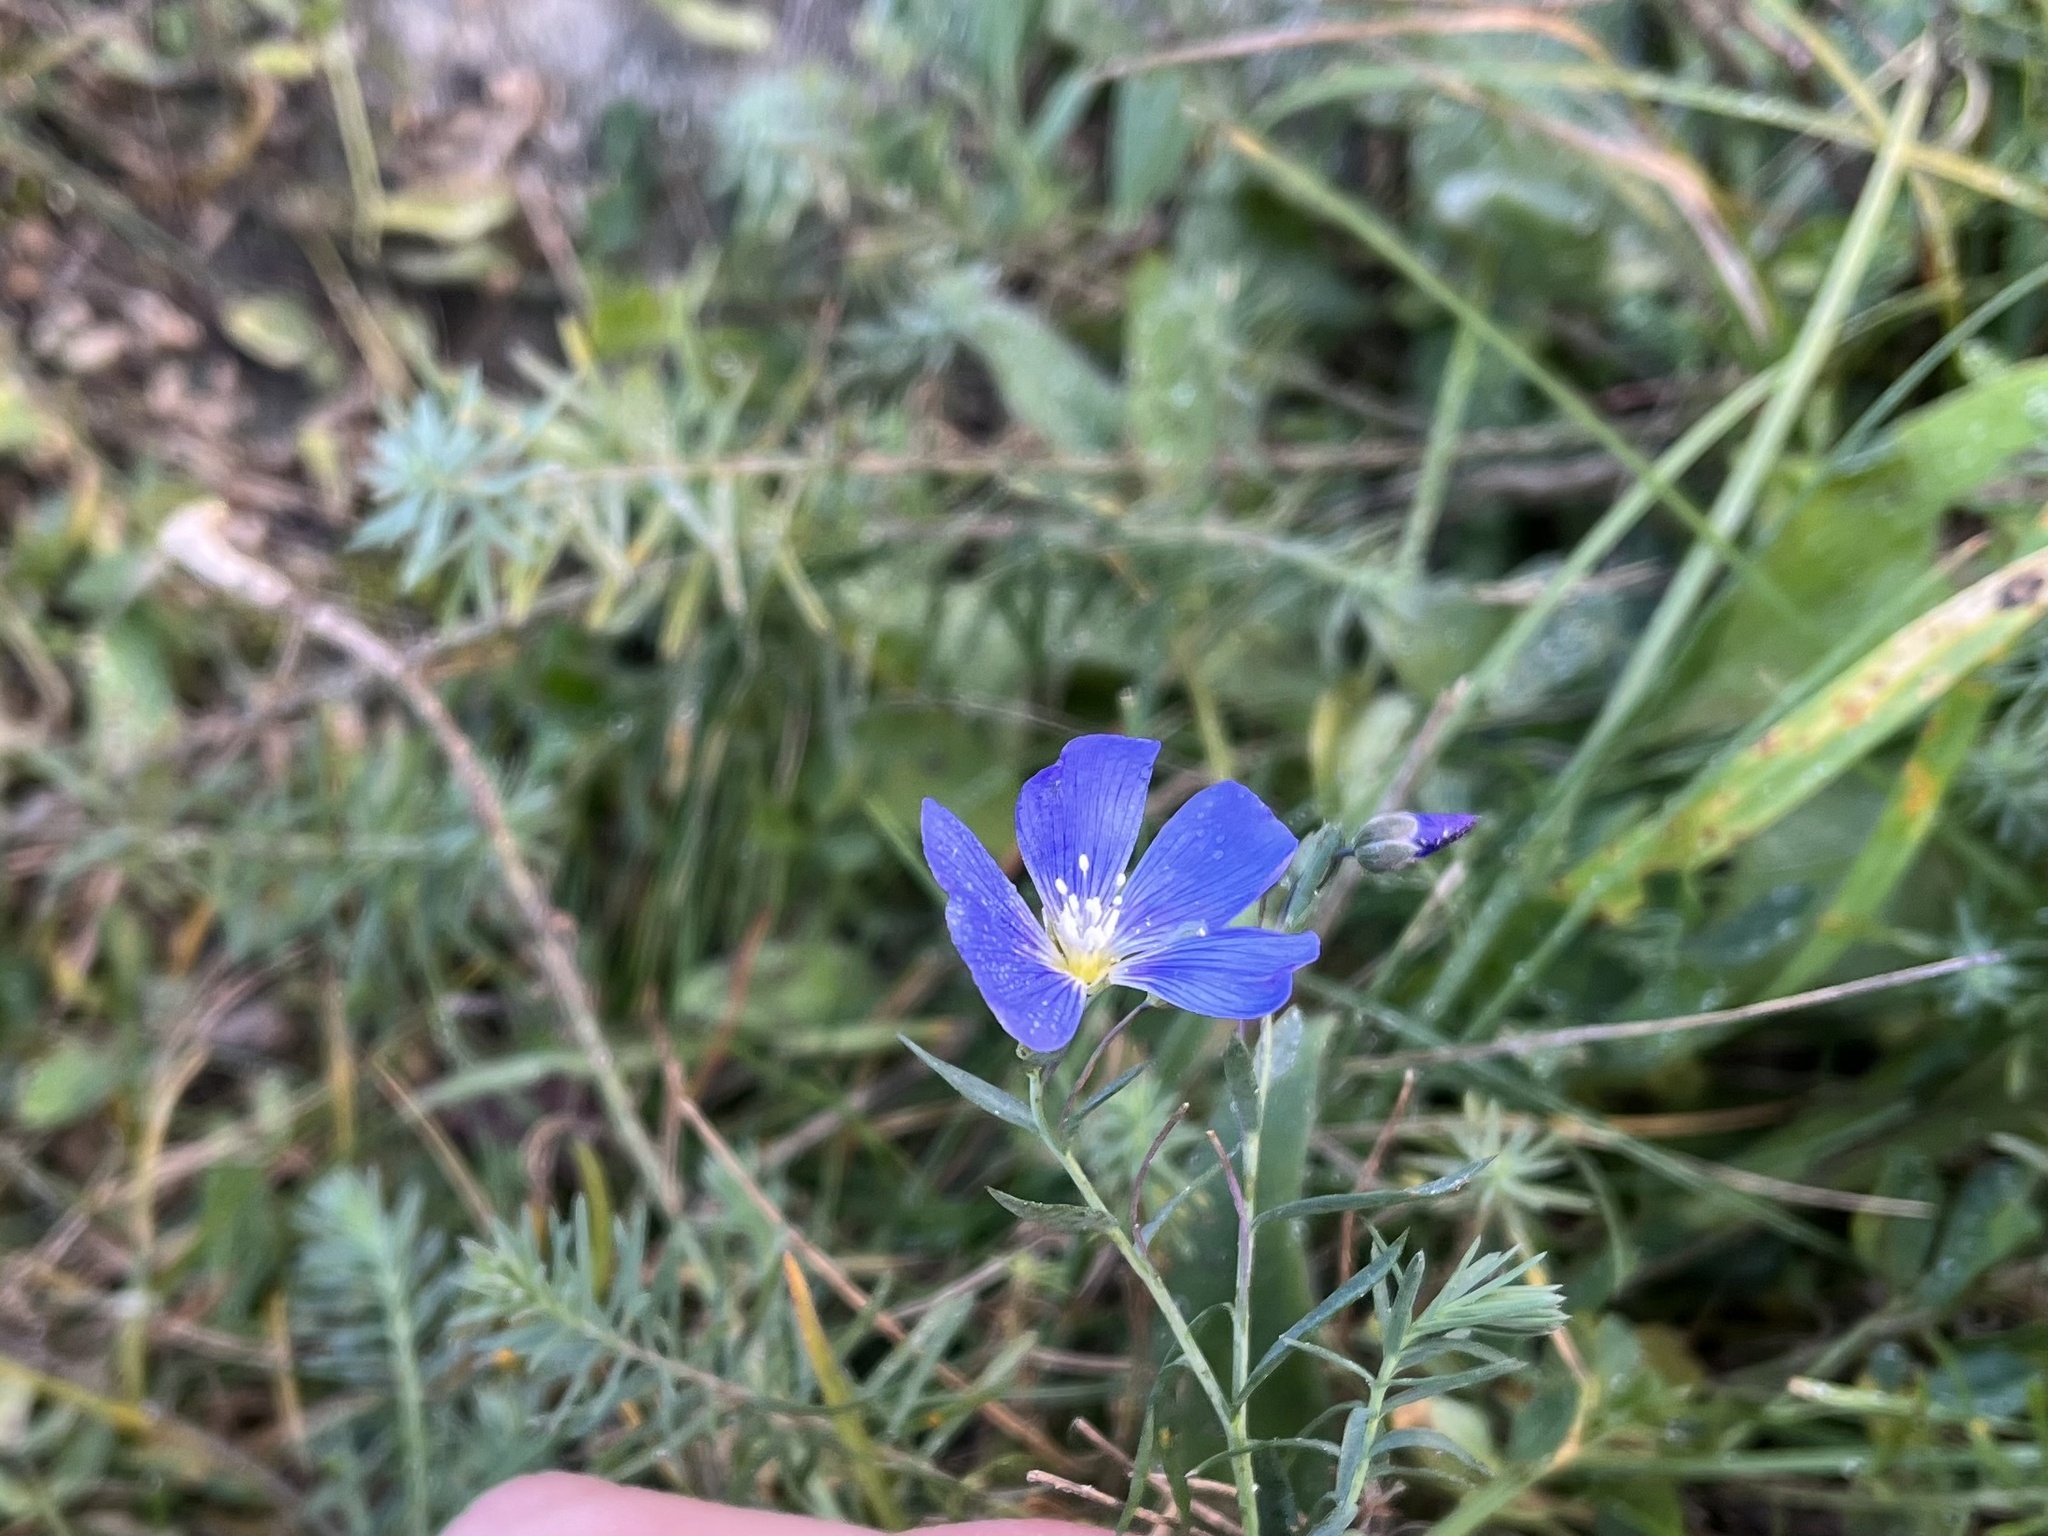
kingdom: Plantae
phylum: Tracheophyta
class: Magnoliopsida
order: Malpighiales
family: Linaceae
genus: Linum
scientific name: Linum austriacum
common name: Austrian flax
